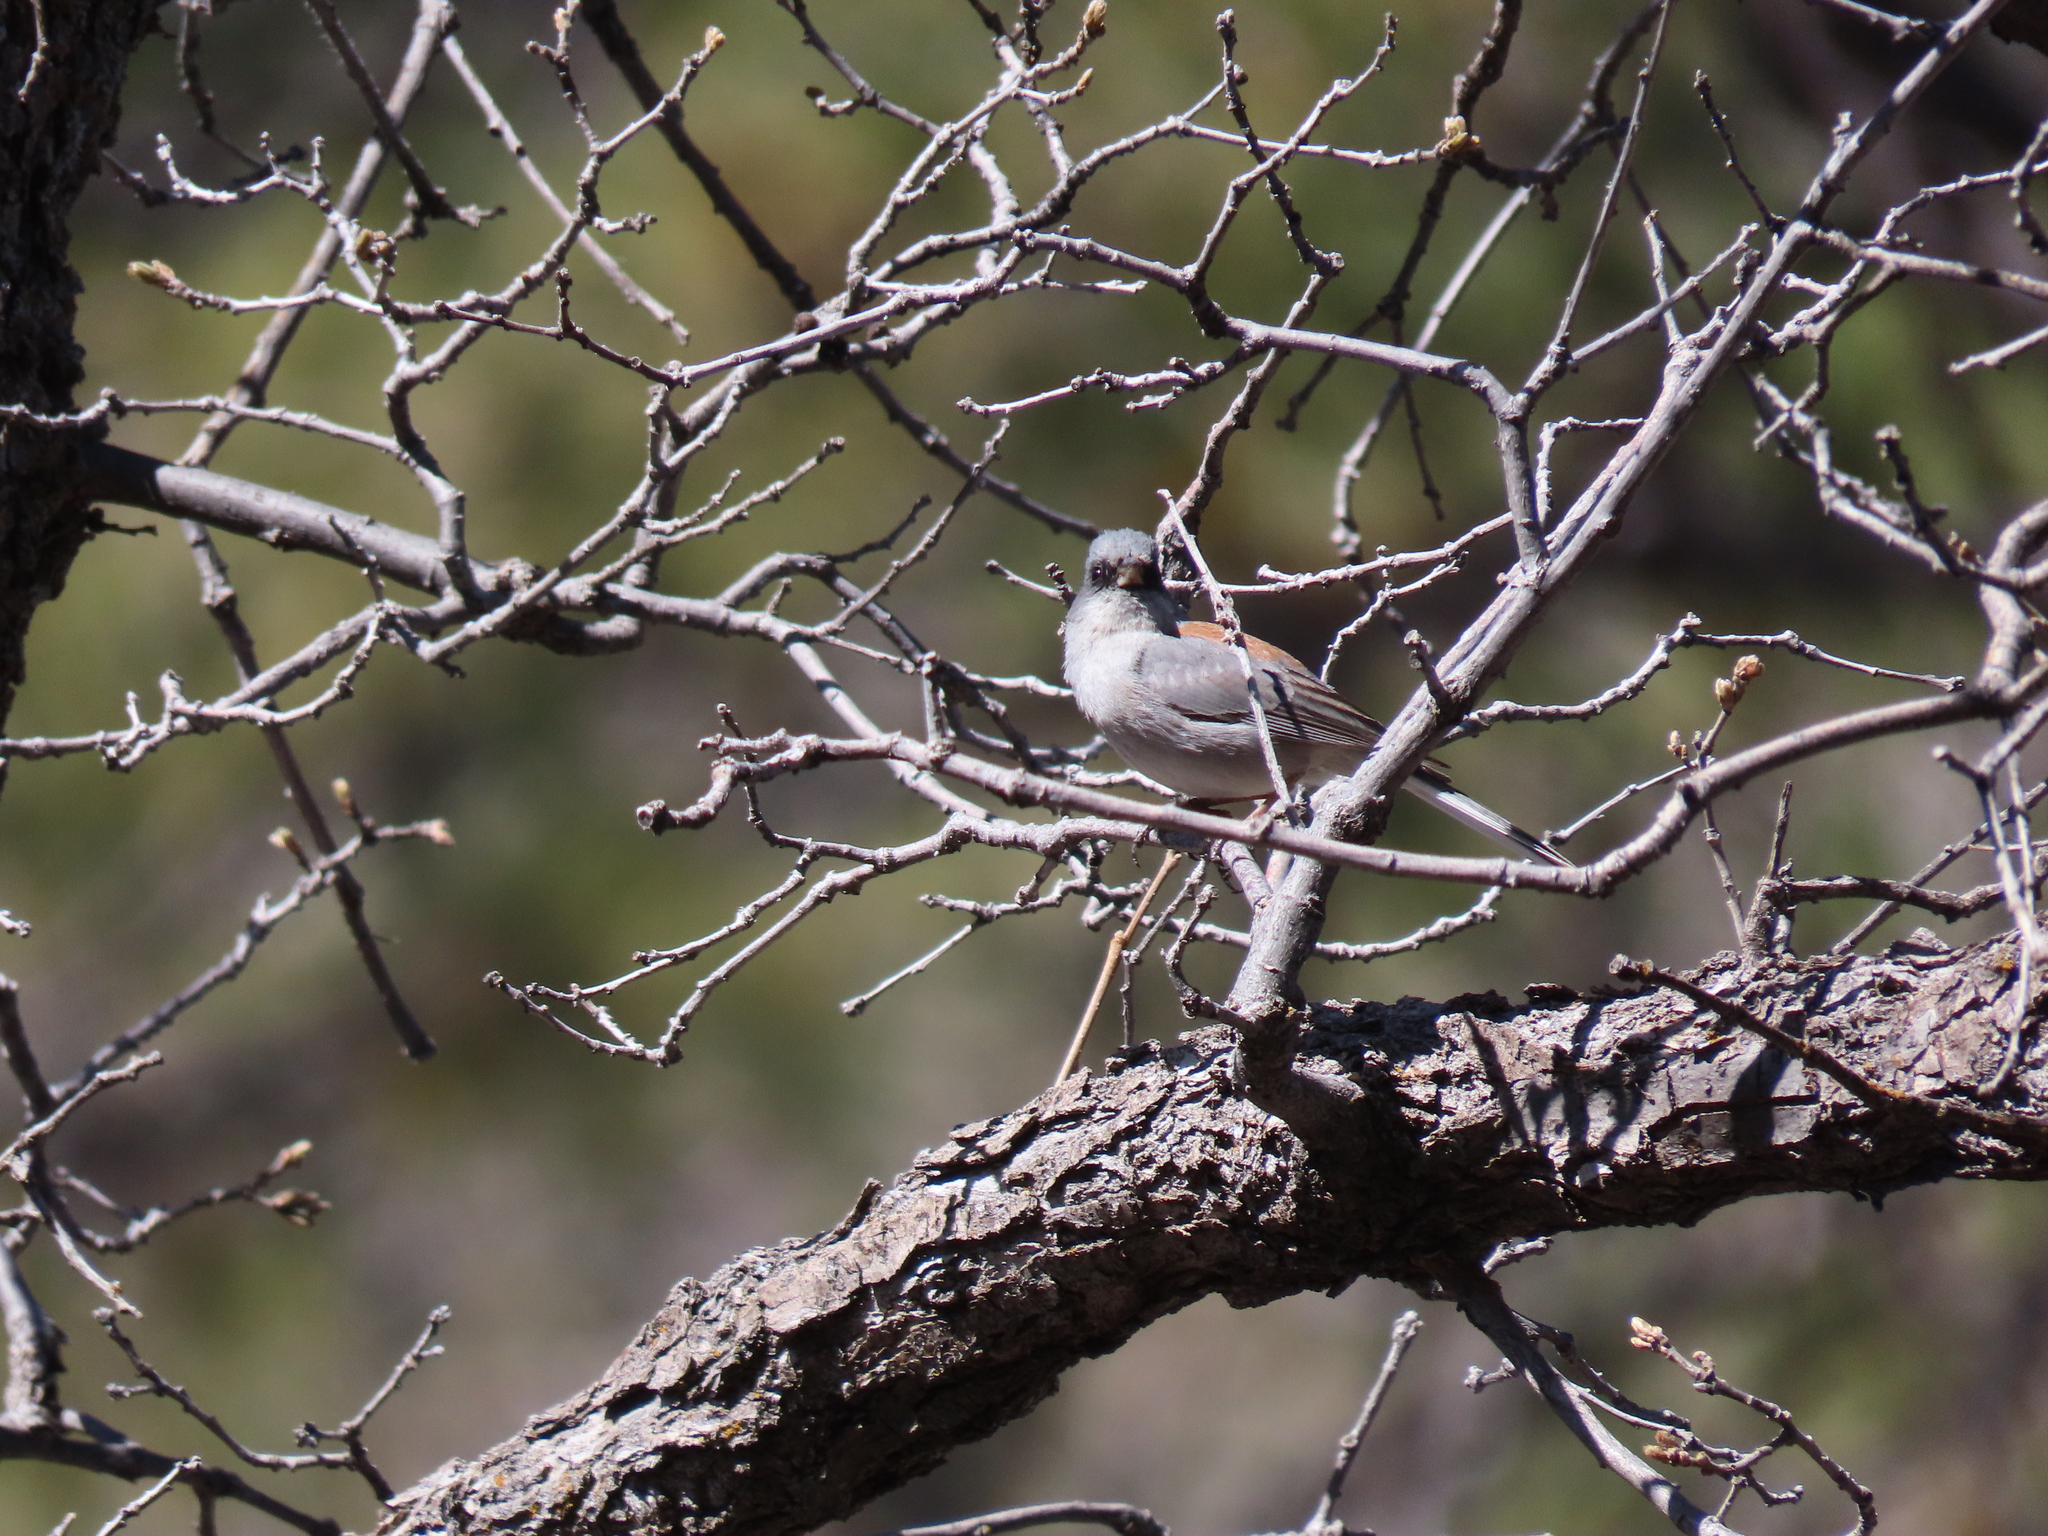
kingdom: Animalia
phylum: Chordata
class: Aves
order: Passeriformes
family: Passerellidae
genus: Junco
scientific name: Junco hyemalis
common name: Dark-eyed junco
